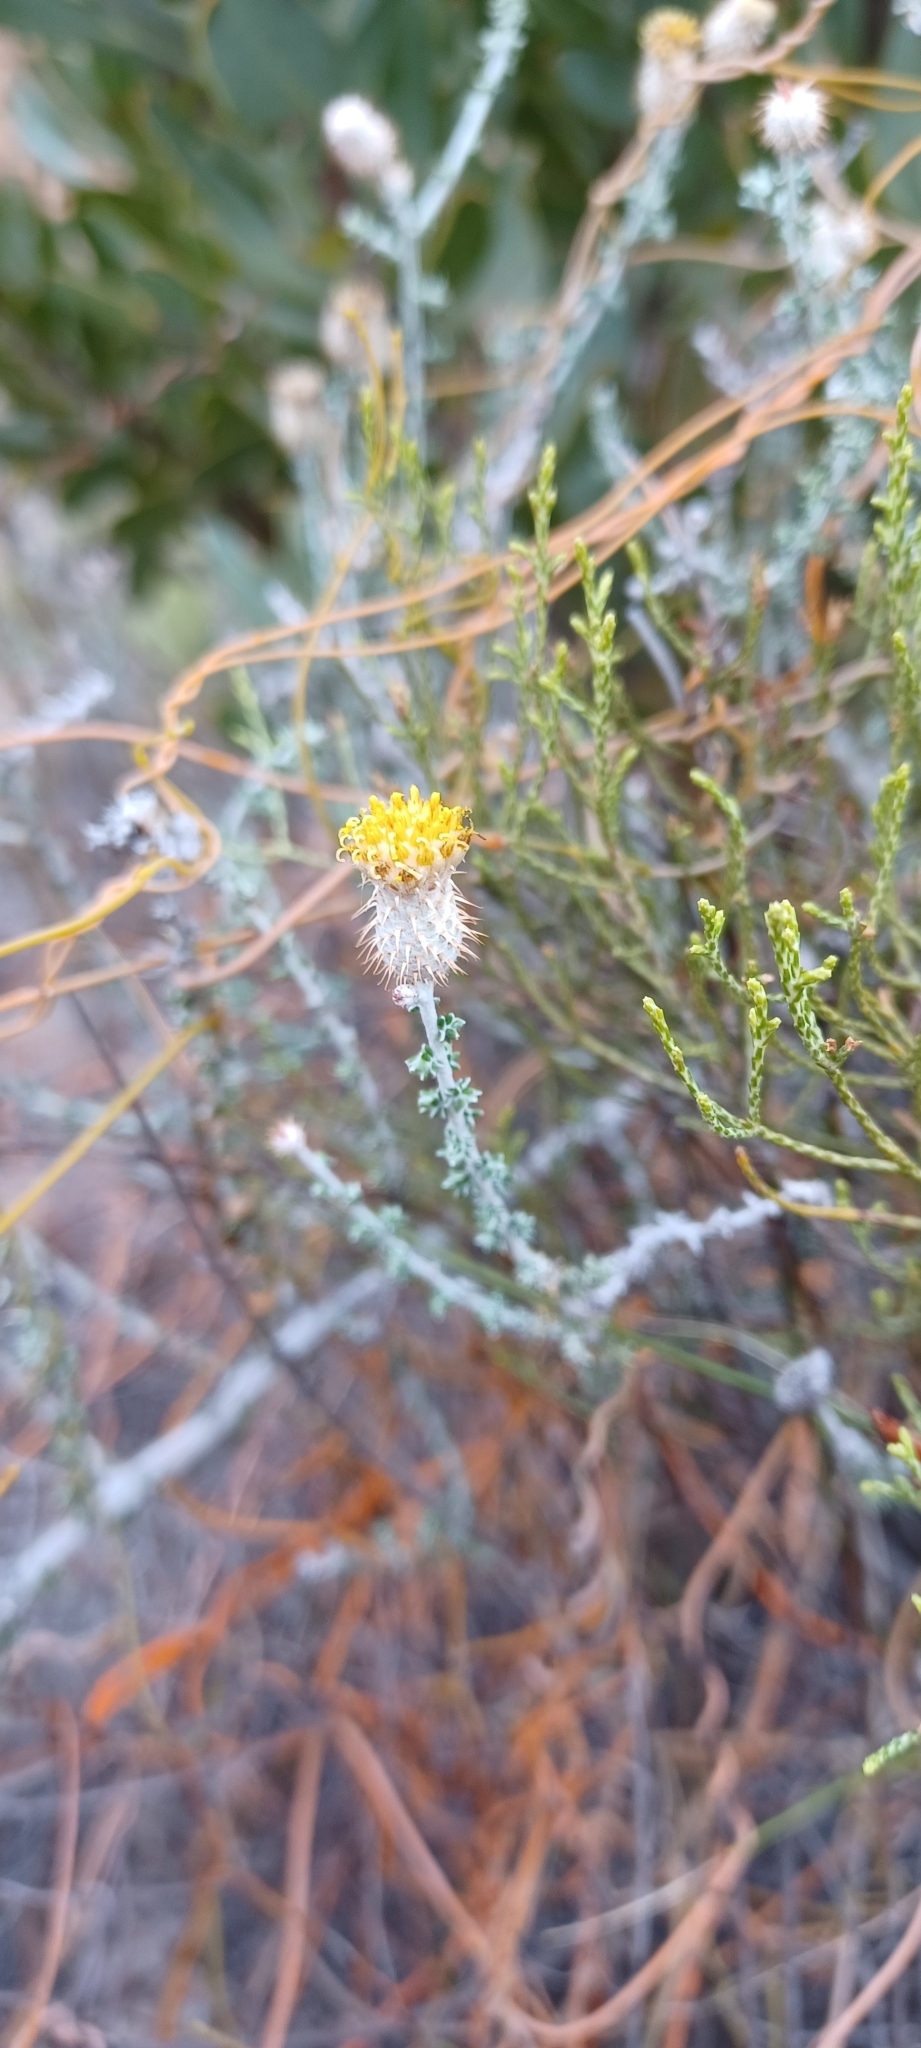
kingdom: Plantae
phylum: Tracheophyta
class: Magnoliopsida
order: Asterales
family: Asteraceae
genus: Lachnospermum
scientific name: Lachnospermum neglectum
